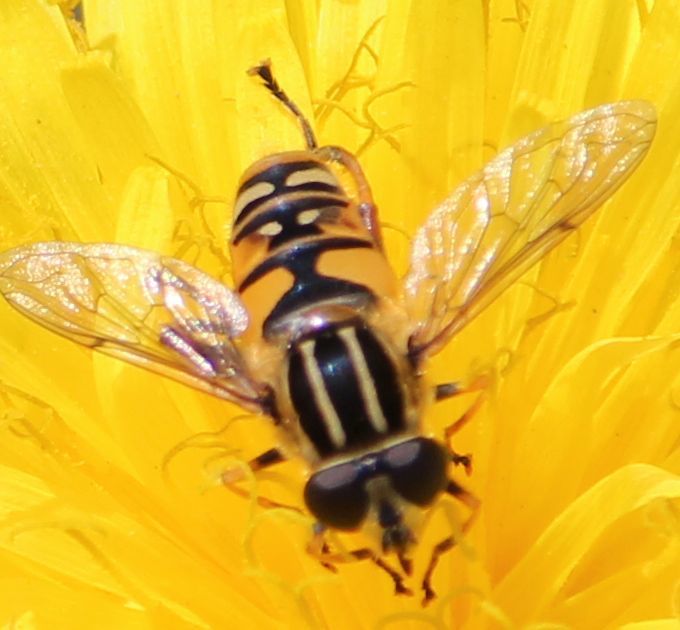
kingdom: Animalia
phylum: Arthropoda
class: Insecta
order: Diptera
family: Syrphidae
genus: Helophilus
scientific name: Helophilus pendulus
